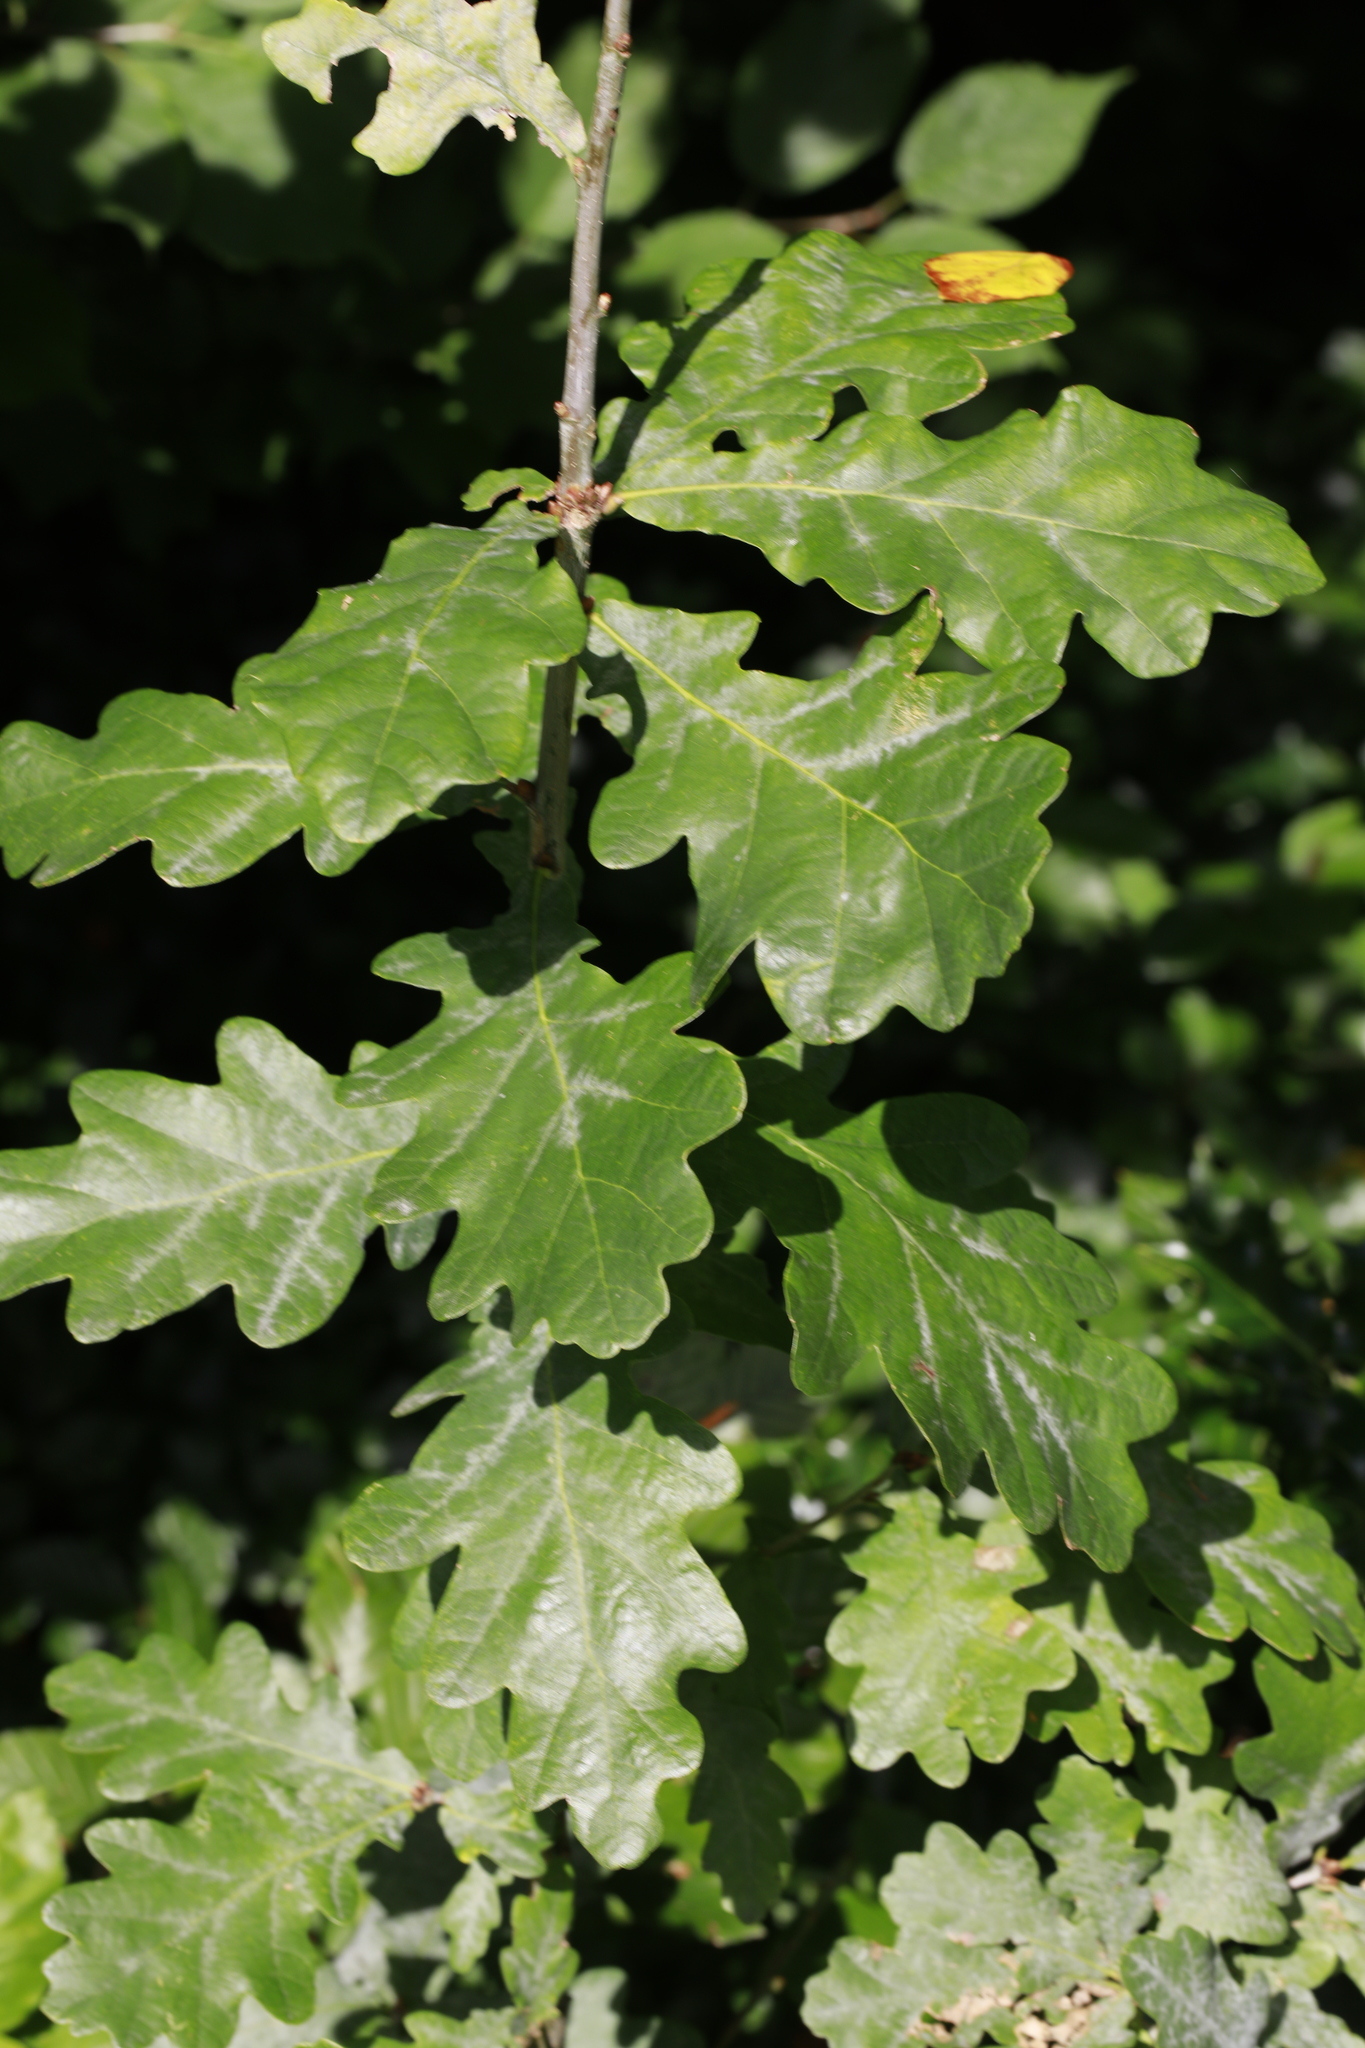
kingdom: Plantae
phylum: Tracheophyta
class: Magnoliopsida
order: Fagales
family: Fagaceae
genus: Quercus
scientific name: Quercus robur
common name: Pedunculate oak
